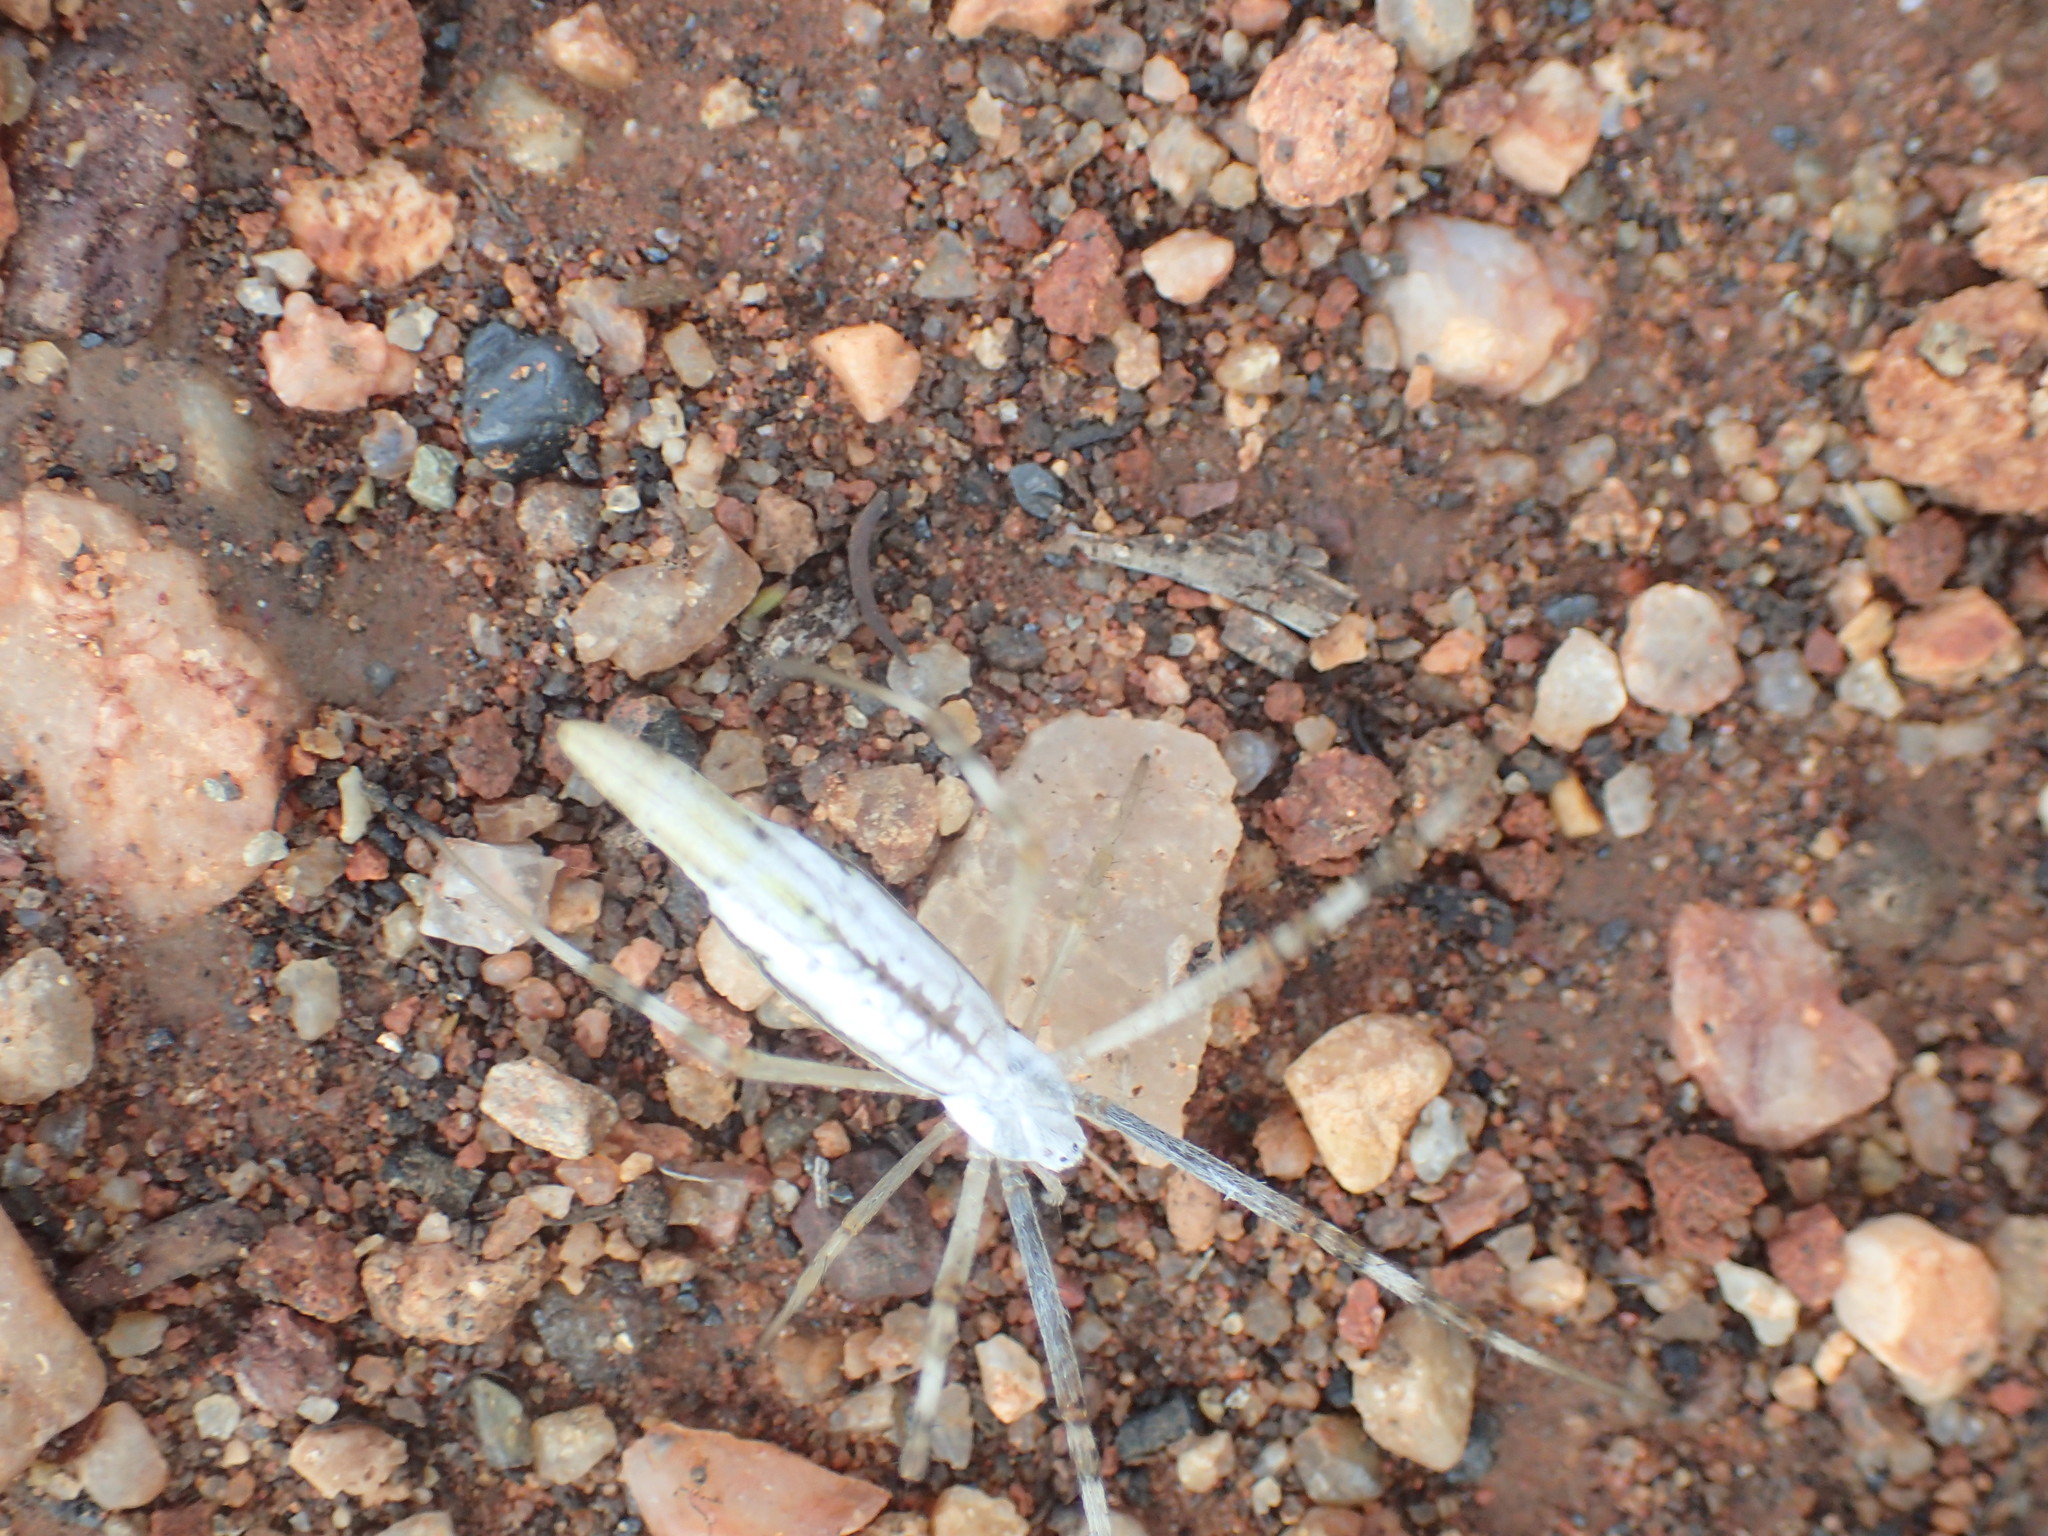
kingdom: Animalia
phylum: Arthropoda
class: Arachnida
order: Araneae
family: Araneidae
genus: Argiope
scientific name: Argiope protensa
